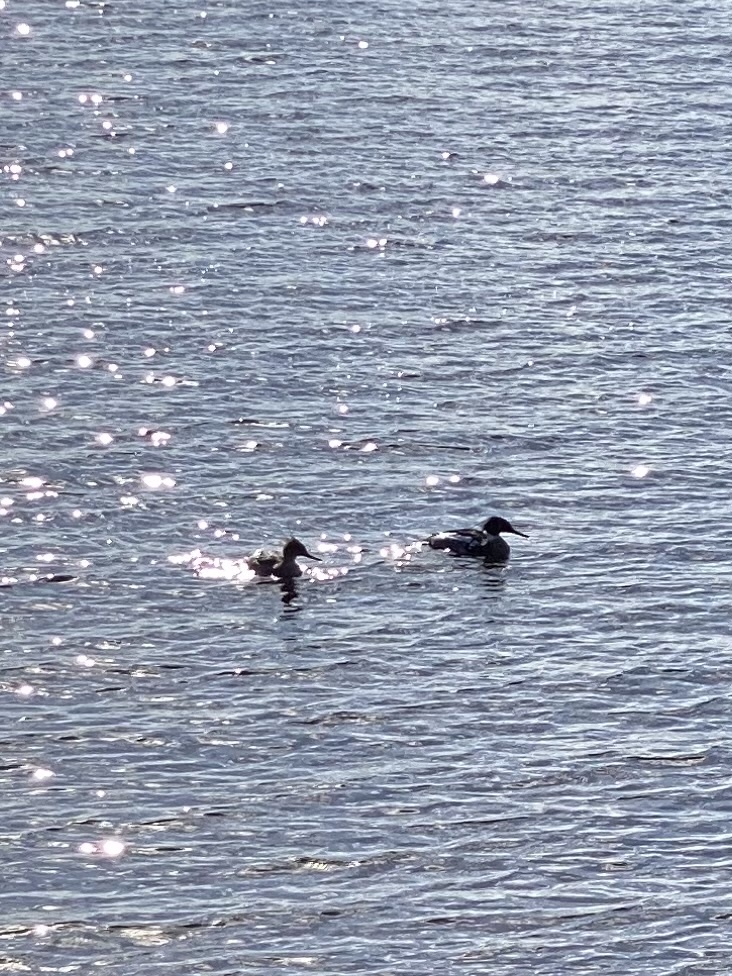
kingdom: Animalia
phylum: Chordata
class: Aves
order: Anseriformes
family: Anatidae
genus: Mergus
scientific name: Mergus serrator
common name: Red-breasted merganser
